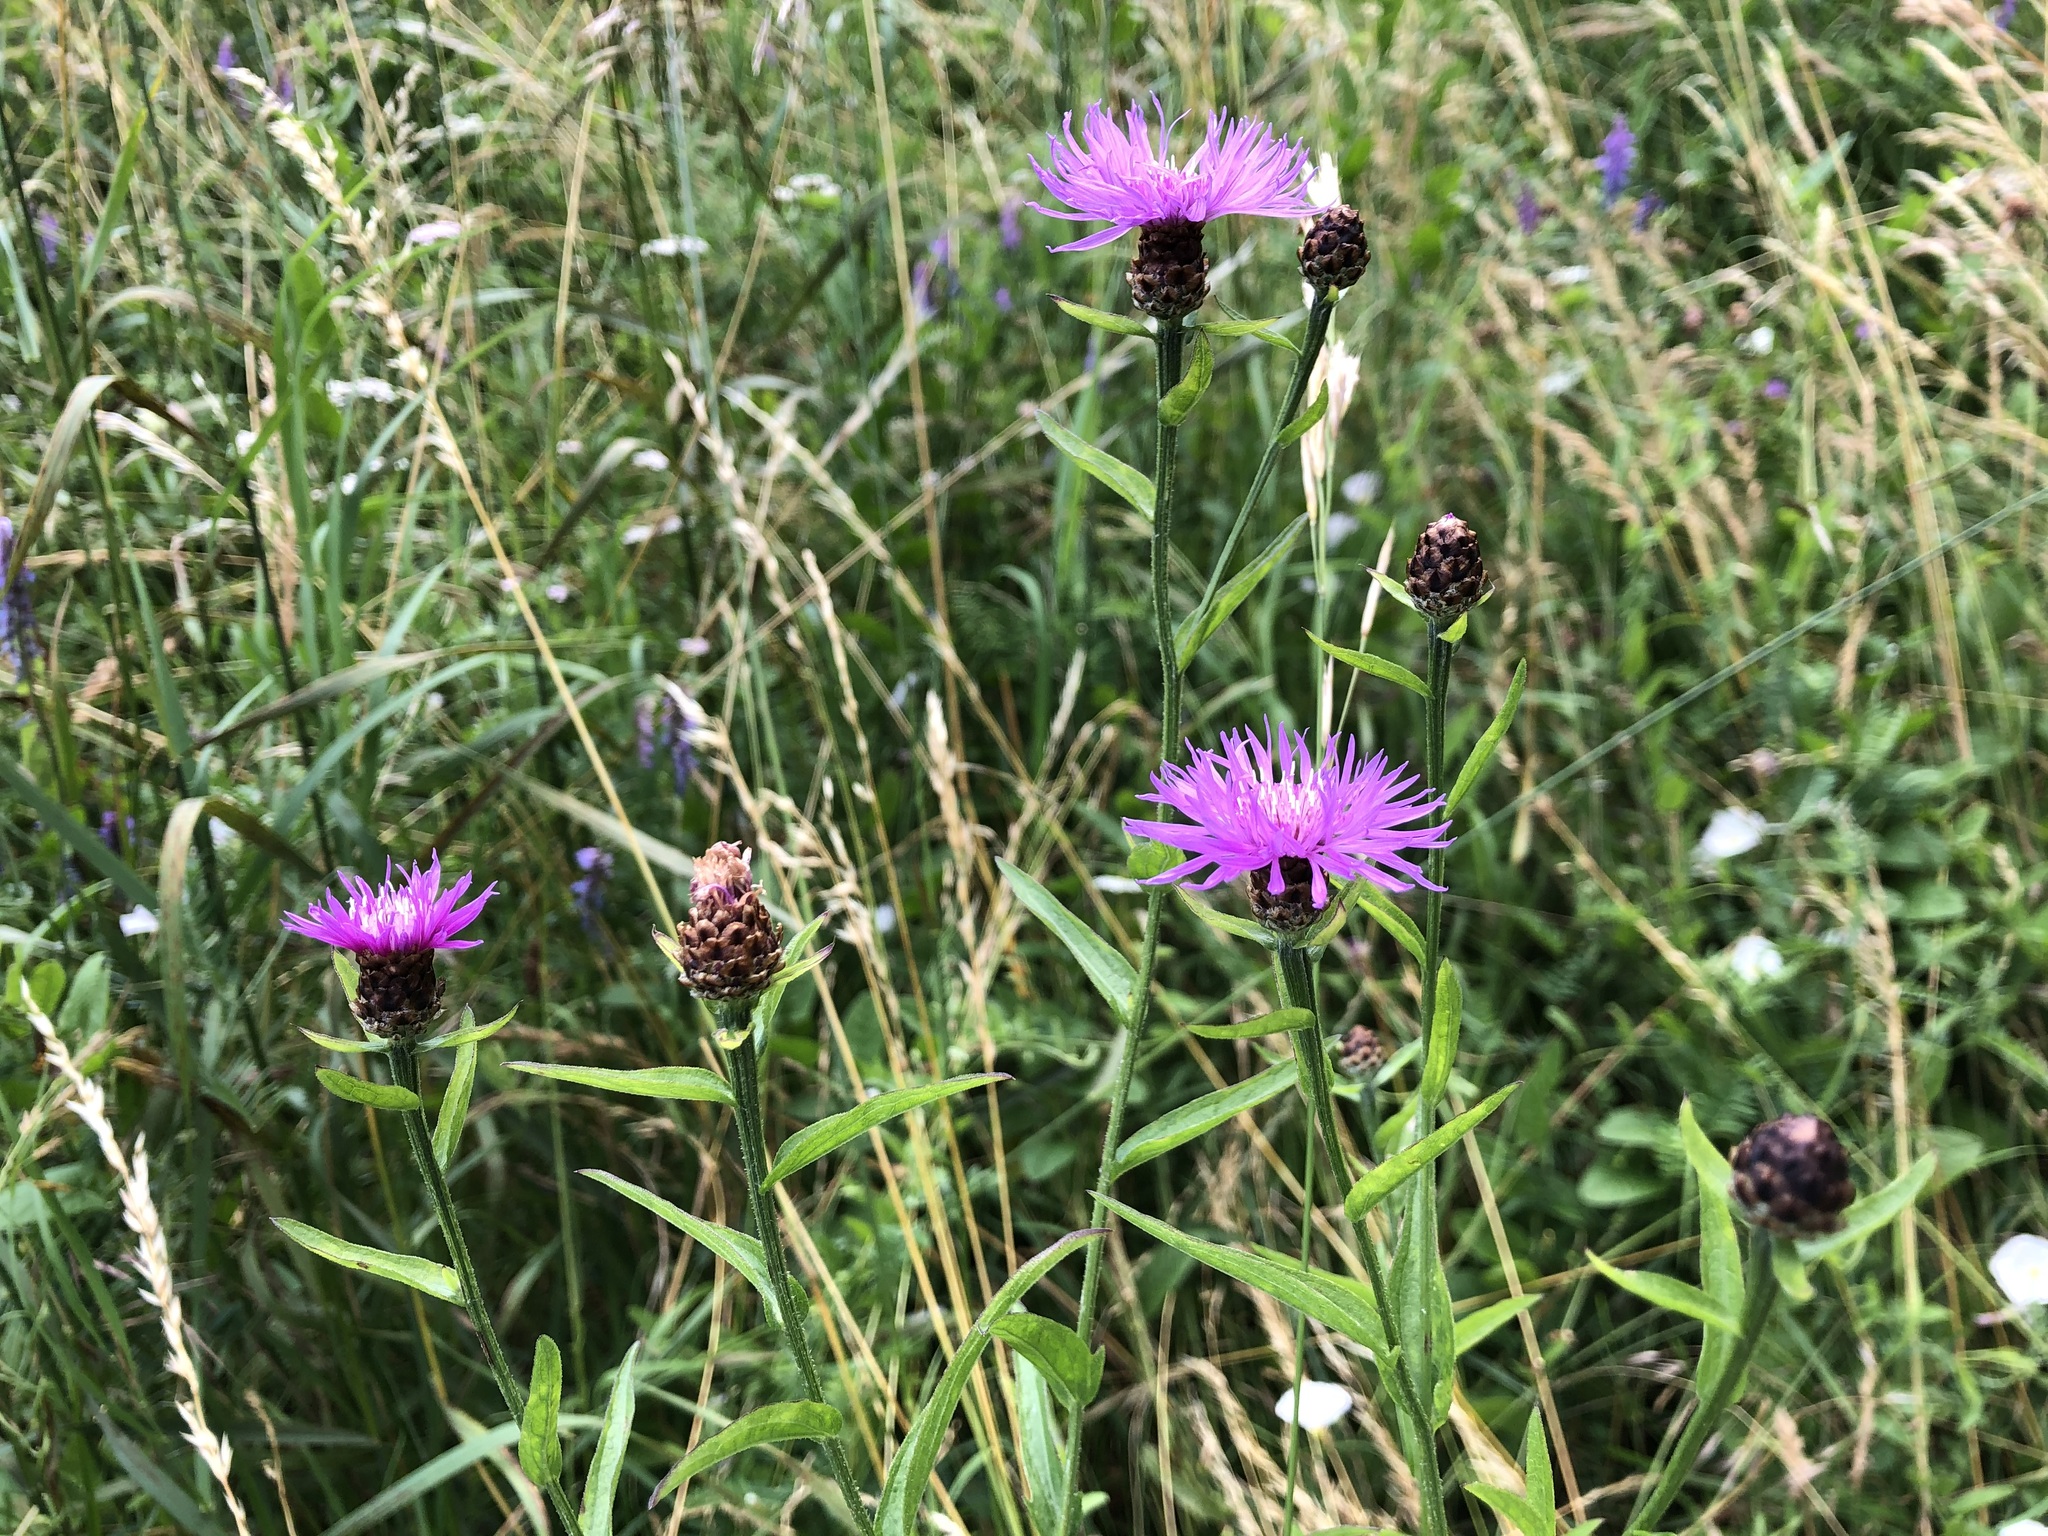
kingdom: Plantae
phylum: Tracheophyta
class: Magnoliopsida
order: Asterales
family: Asteraceae
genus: Centaurea
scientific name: Centaurea jacea
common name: Brown knapweed
